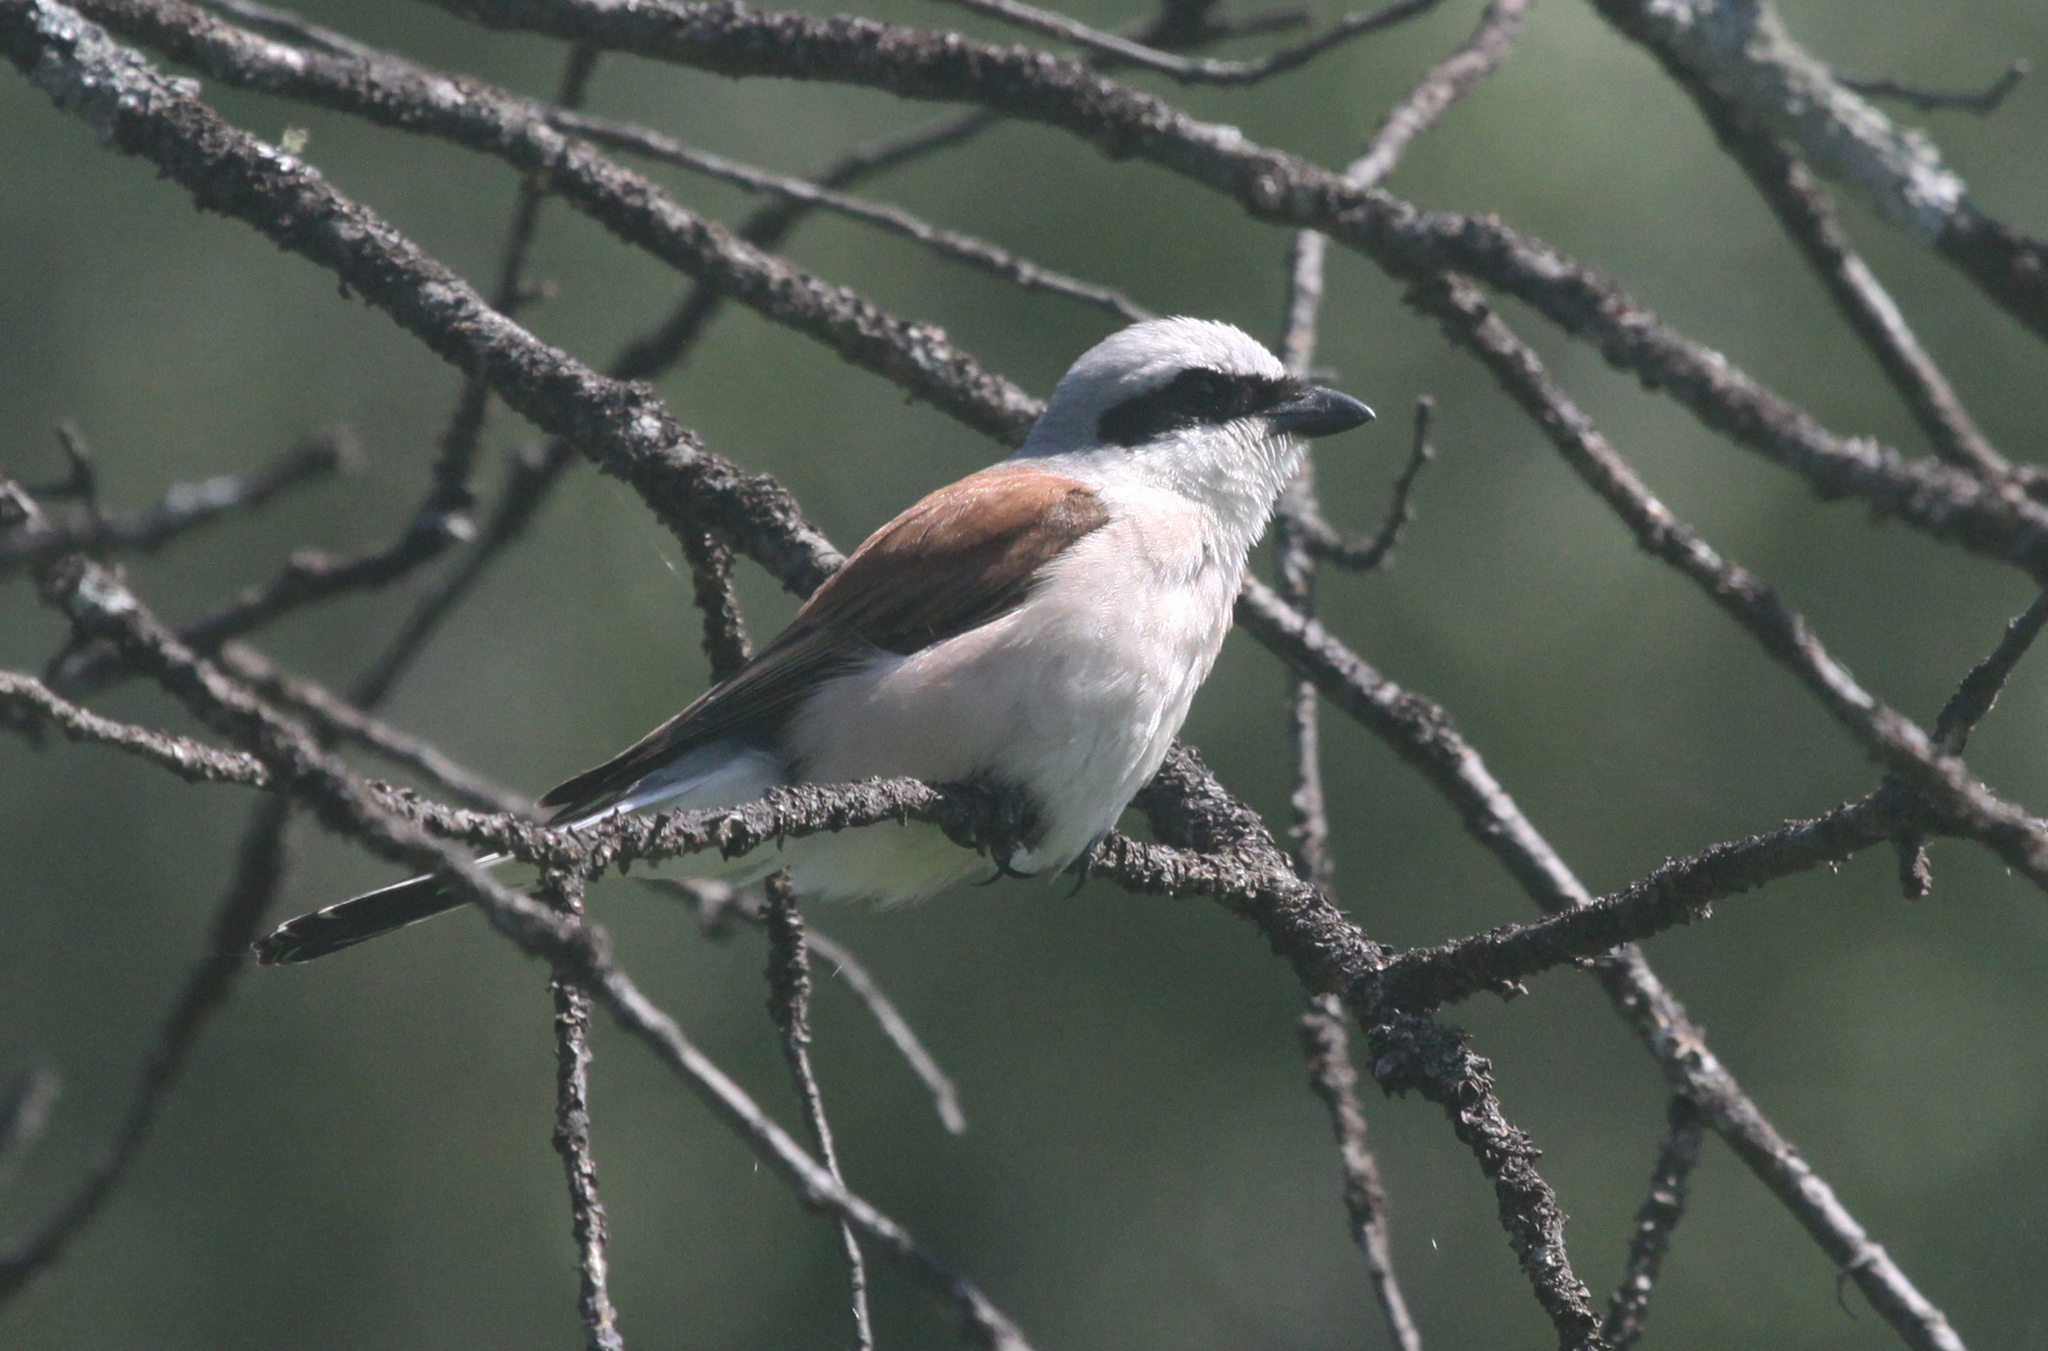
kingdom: Animalia
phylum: Chordata
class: Aves
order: Passeriformes
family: Laniidae
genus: Lanius
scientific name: Lanius collurio
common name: Red-backed shrike
